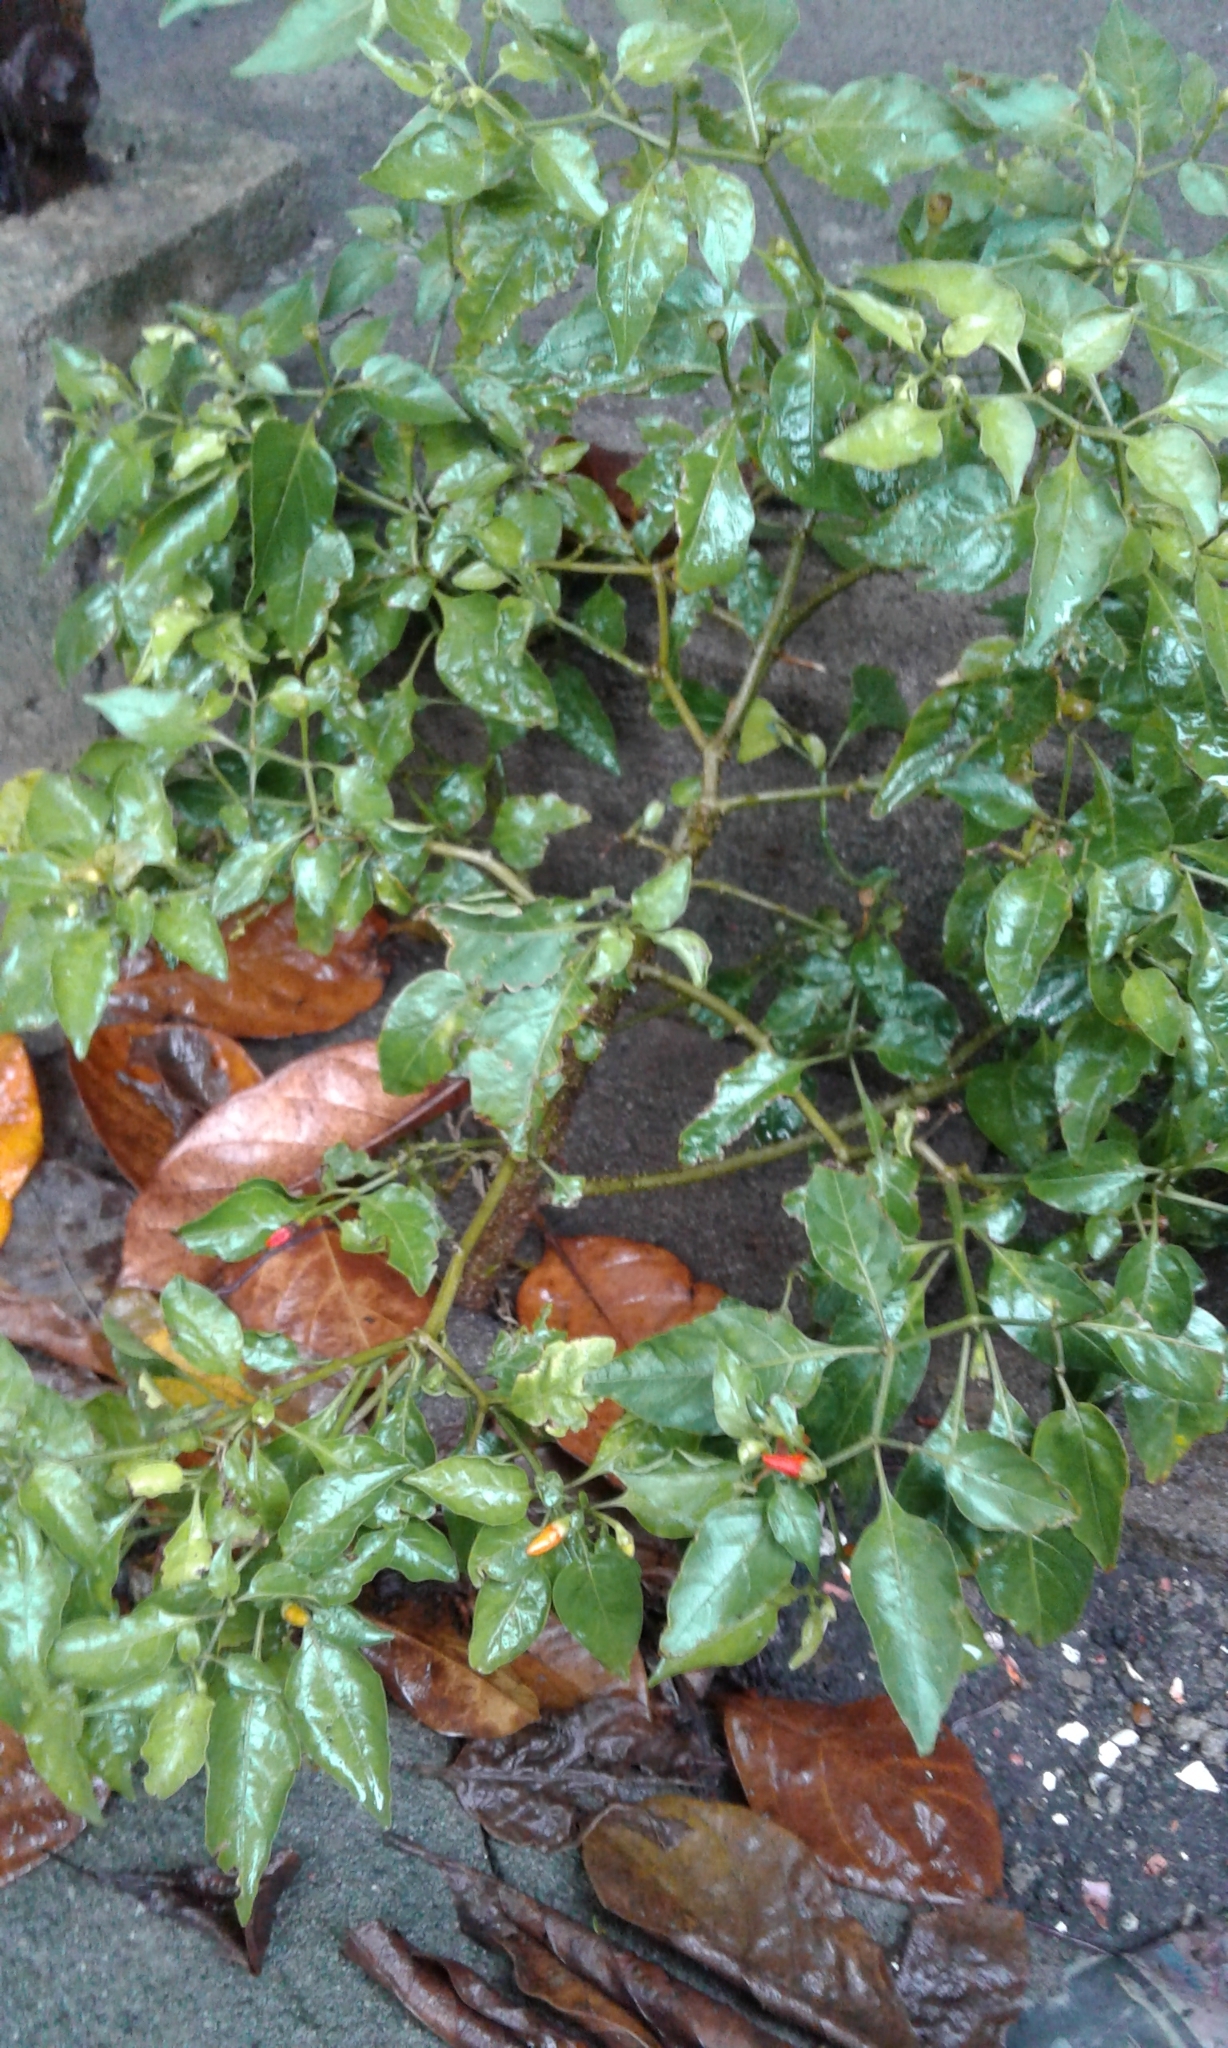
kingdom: Plantae
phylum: Tracheophyta
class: Magnoliopsida
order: Solanales
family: Solanaceae
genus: Capsicum
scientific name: Capsicum frutescens
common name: Bird pepper
